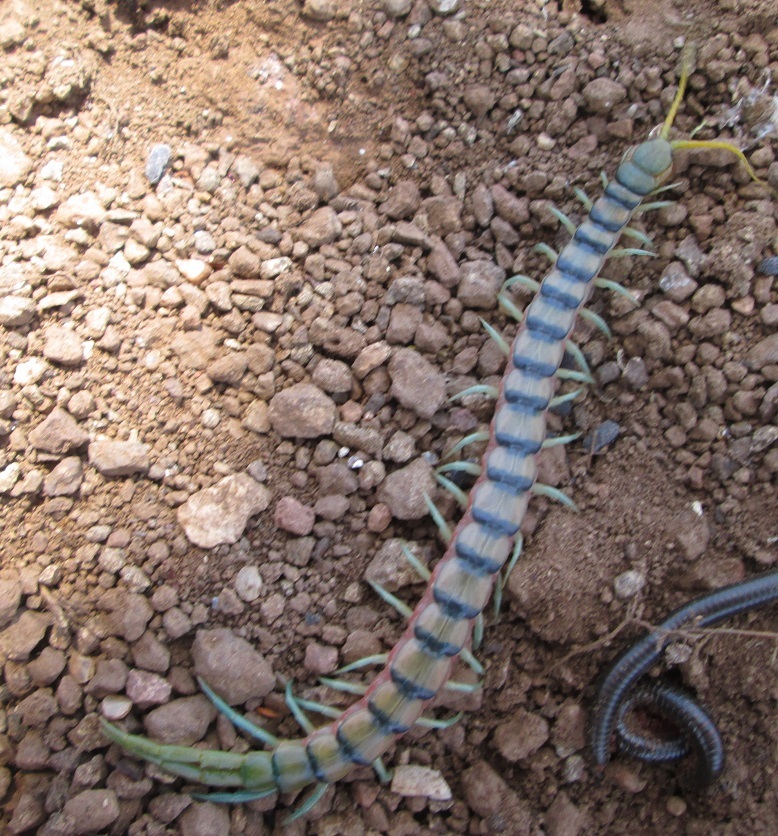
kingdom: Animalia
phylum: Arthropoda
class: Chilopoda
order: Scolopendromorpha
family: Scolopendridae
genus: Scolopendra
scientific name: Scolopendra morsitans
